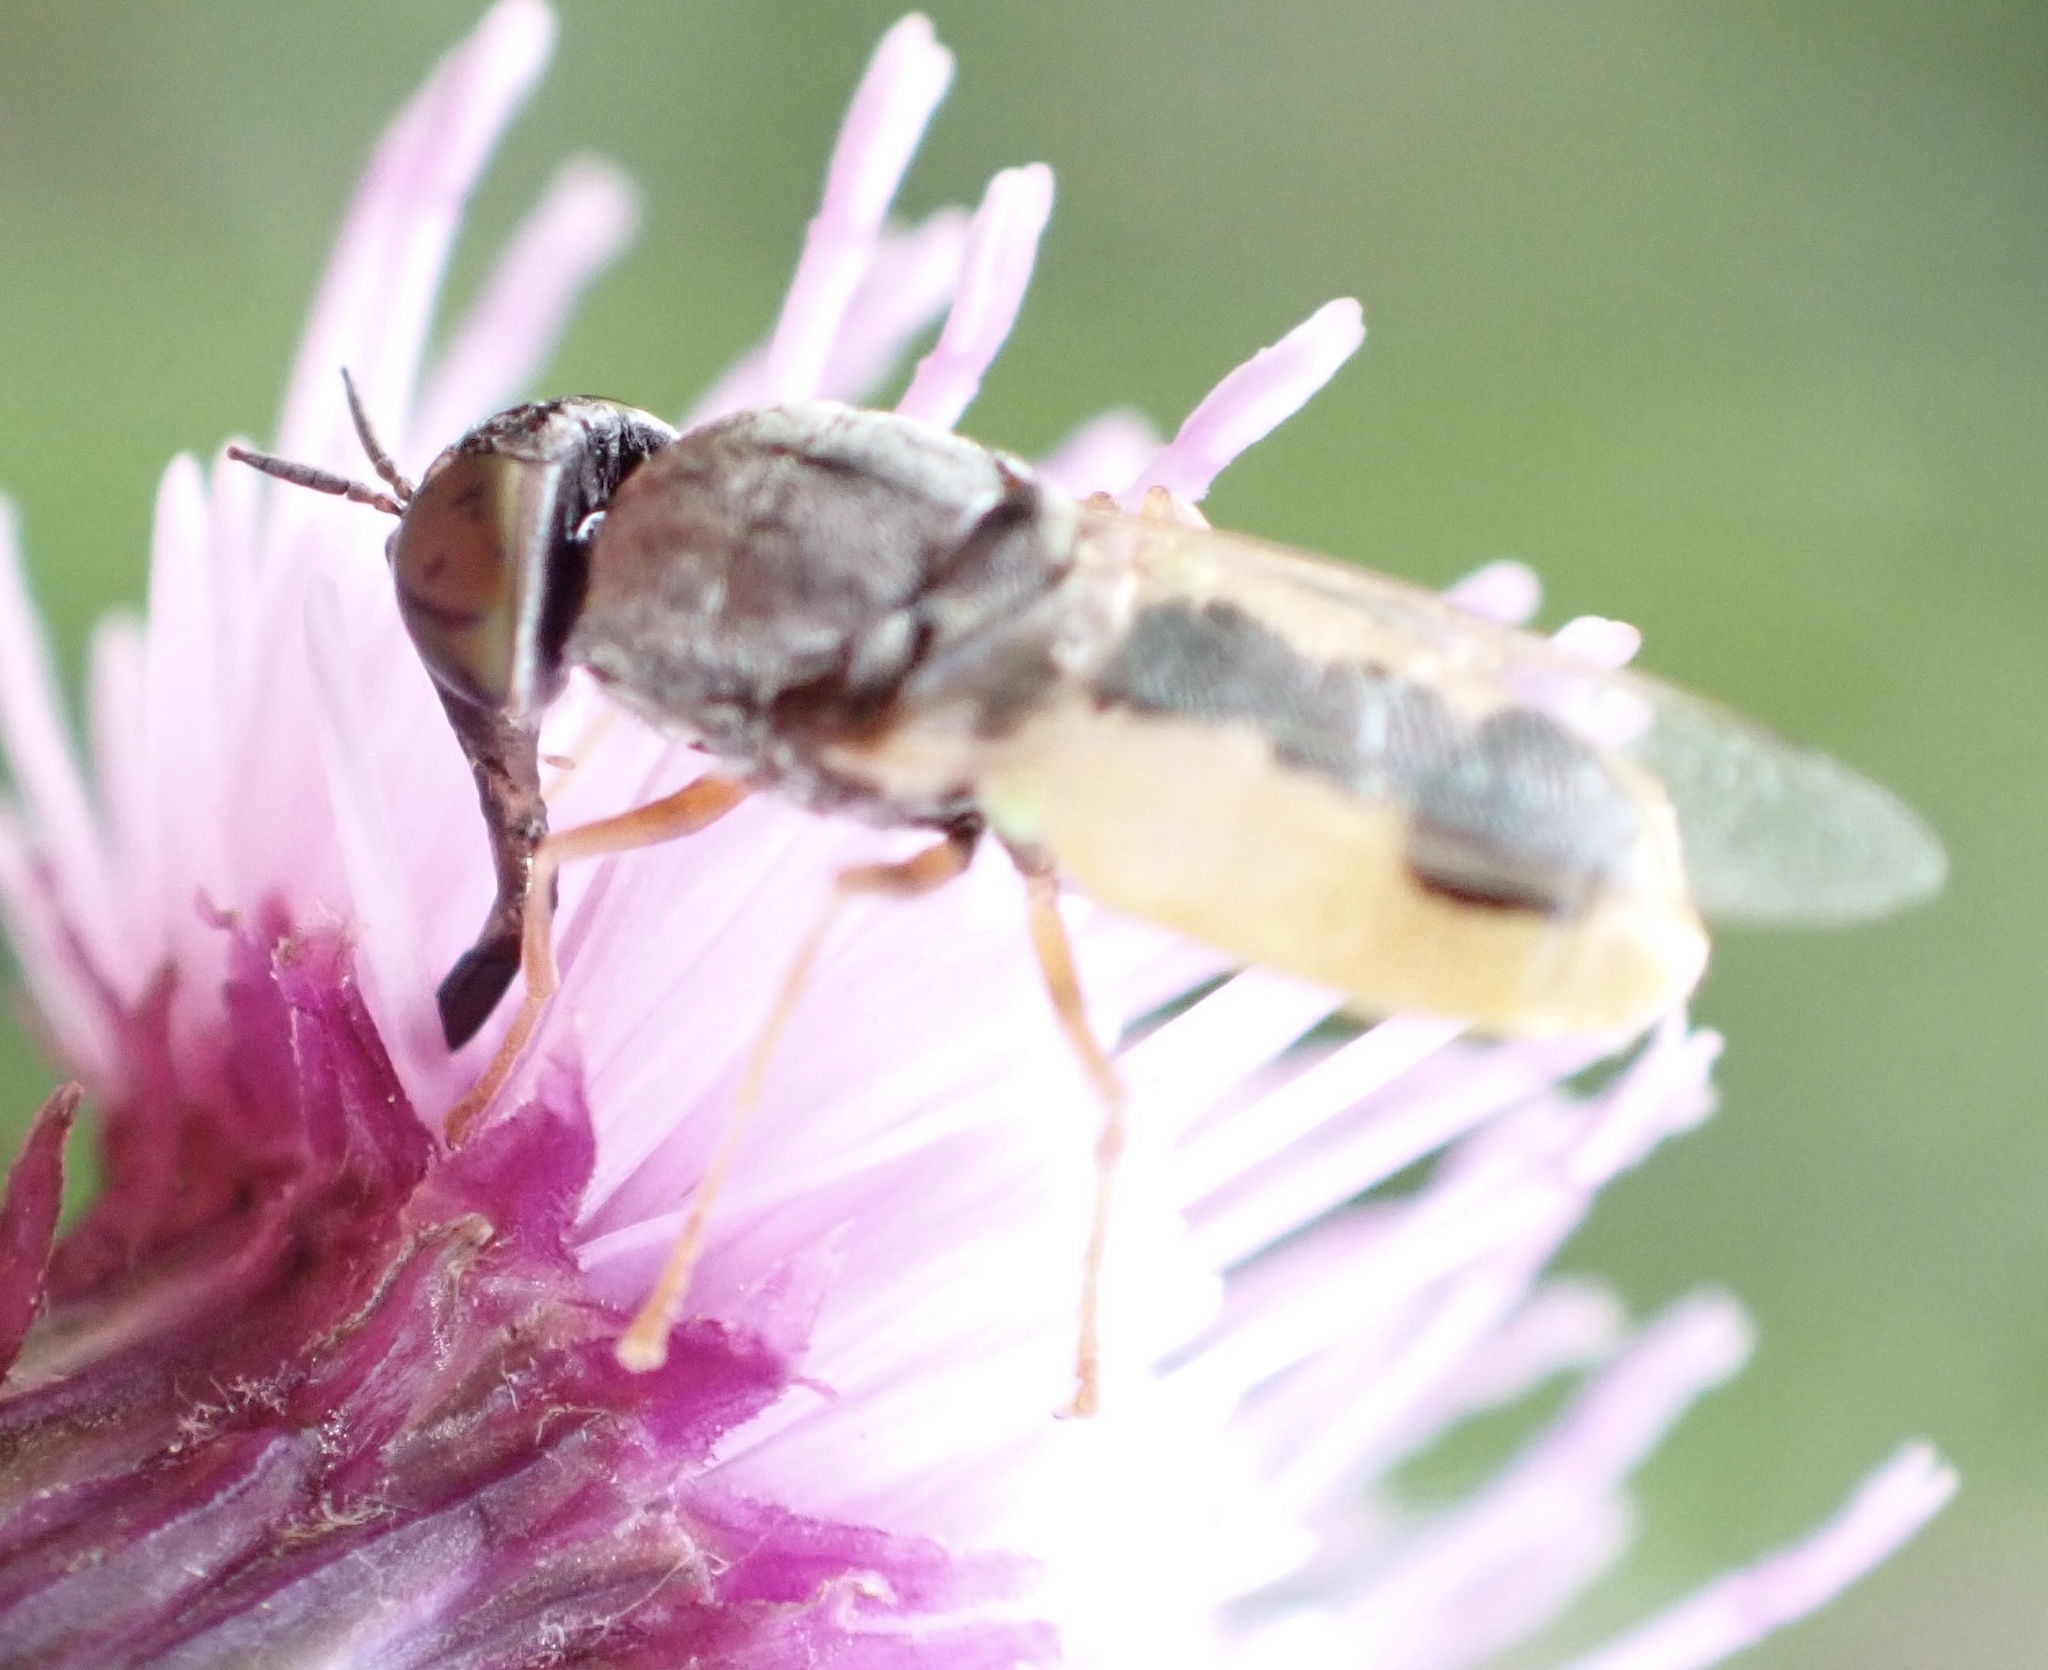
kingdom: Animalia
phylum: Arthropoda
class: Insecta
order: Diptera
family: Stratiomyidae
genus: Oplodontha
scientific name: Oplodontha viridula
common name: Common green colonel
